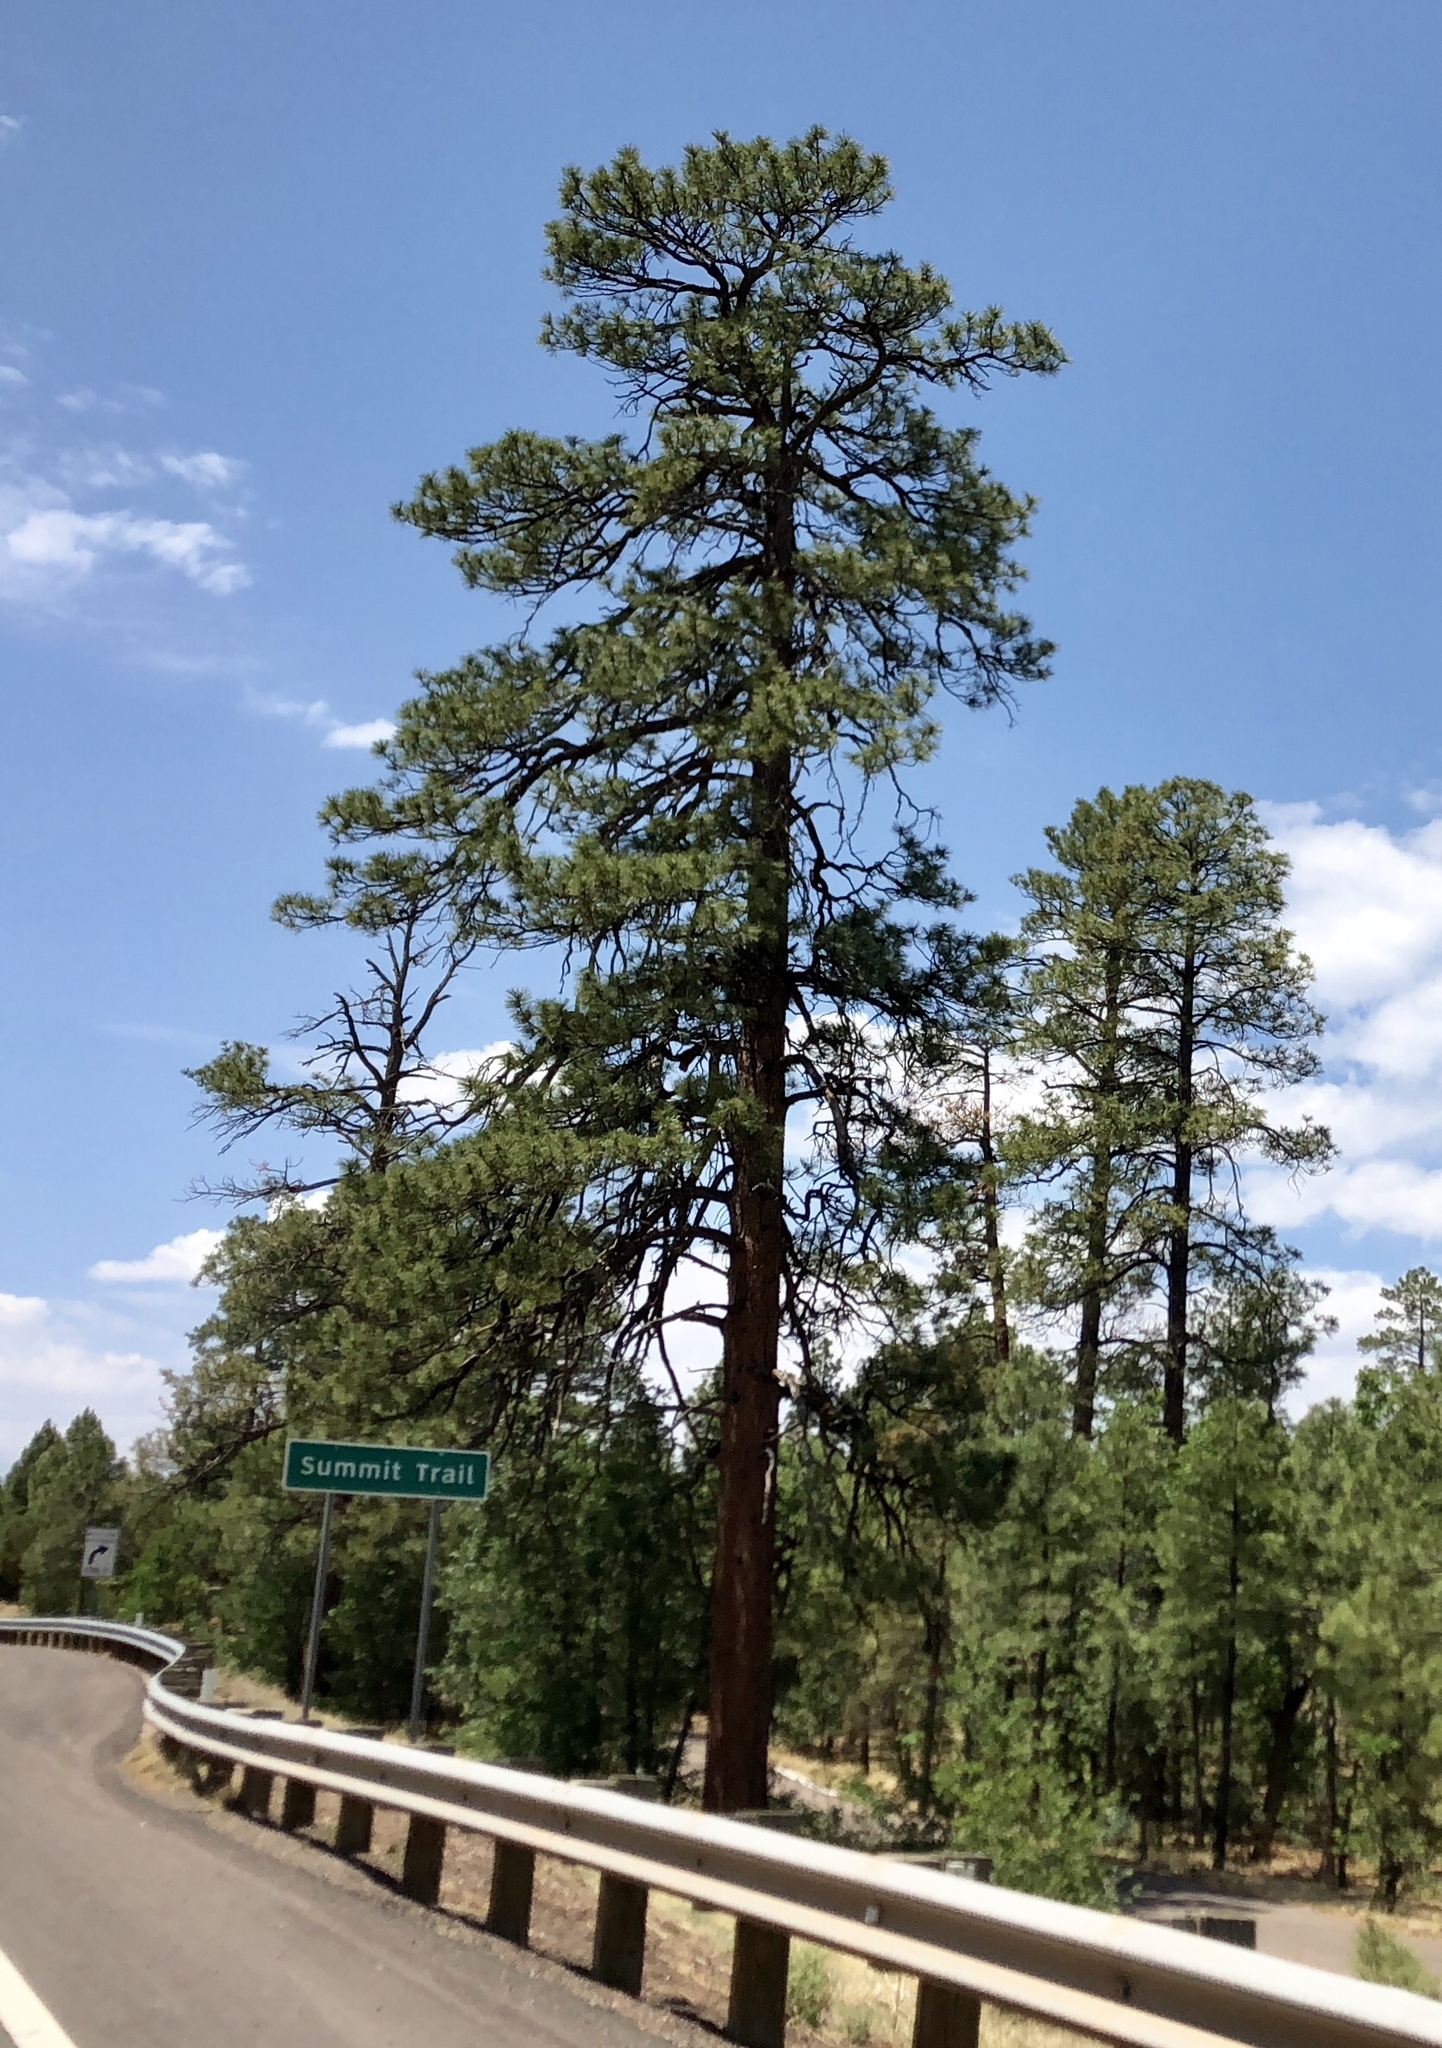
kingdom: Plantae
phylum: Tracheophyta
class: Pinopsida
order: Pinales
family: Pinaceae
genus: Pinus
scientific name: Pinus ponderosa
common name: Western yellow-pine
